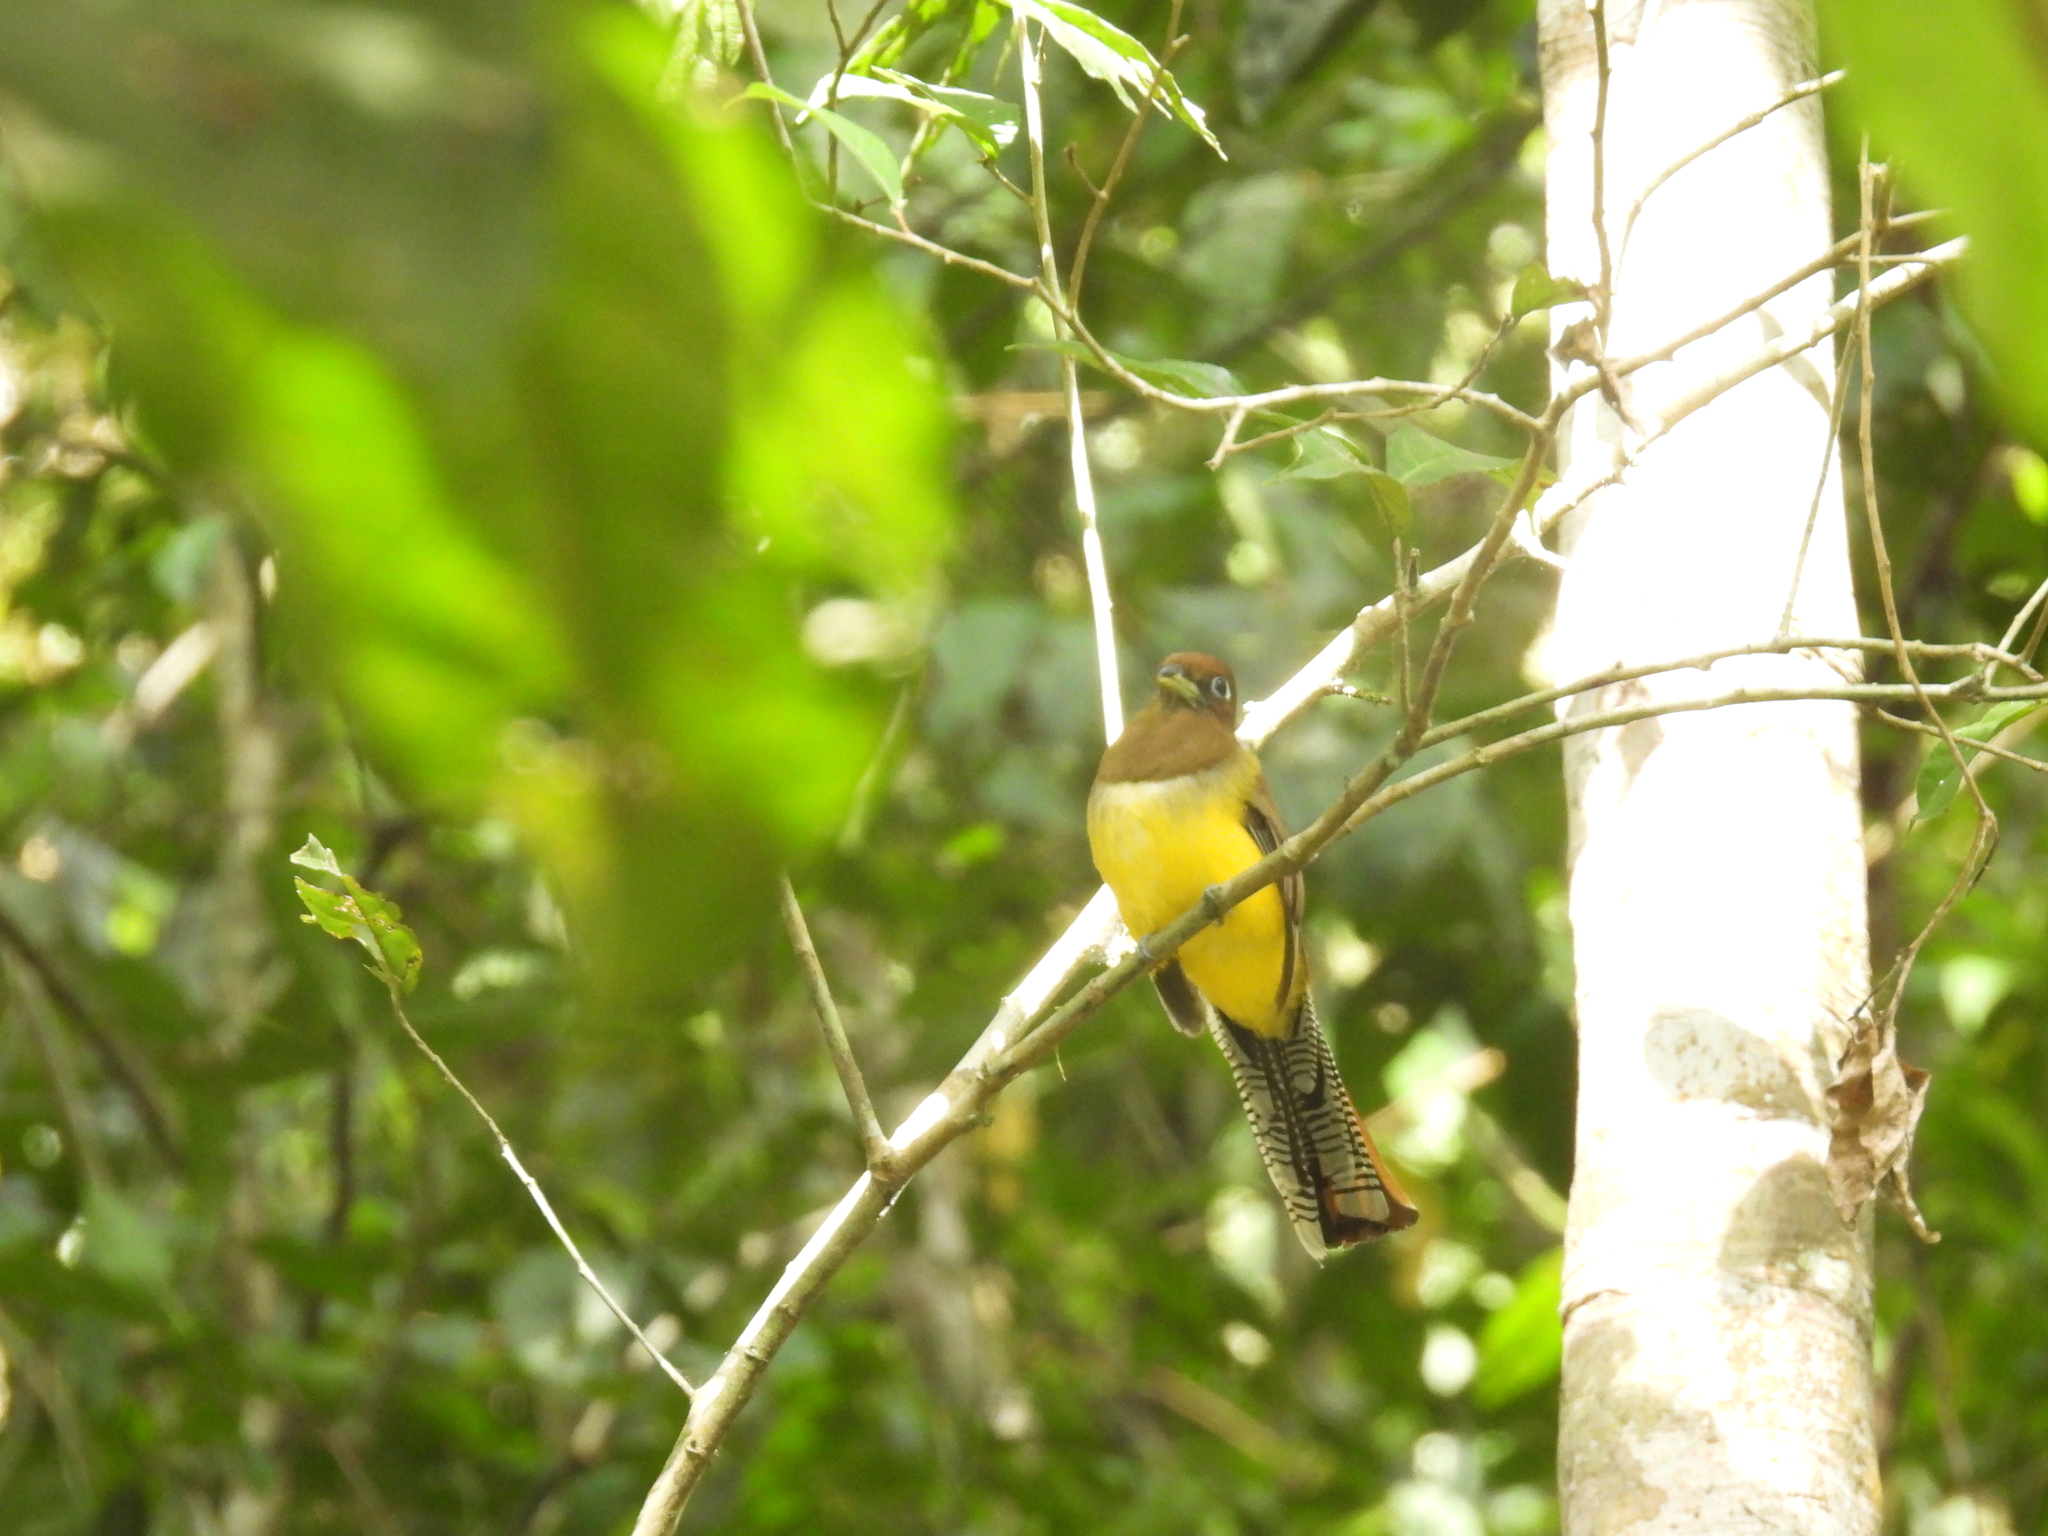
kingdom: Animalia
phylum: Chordata
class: Aves
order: Trogoniformes
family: Trogonidae
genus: Trogon
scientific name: Trogon rufus
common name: Black-throated trogon
